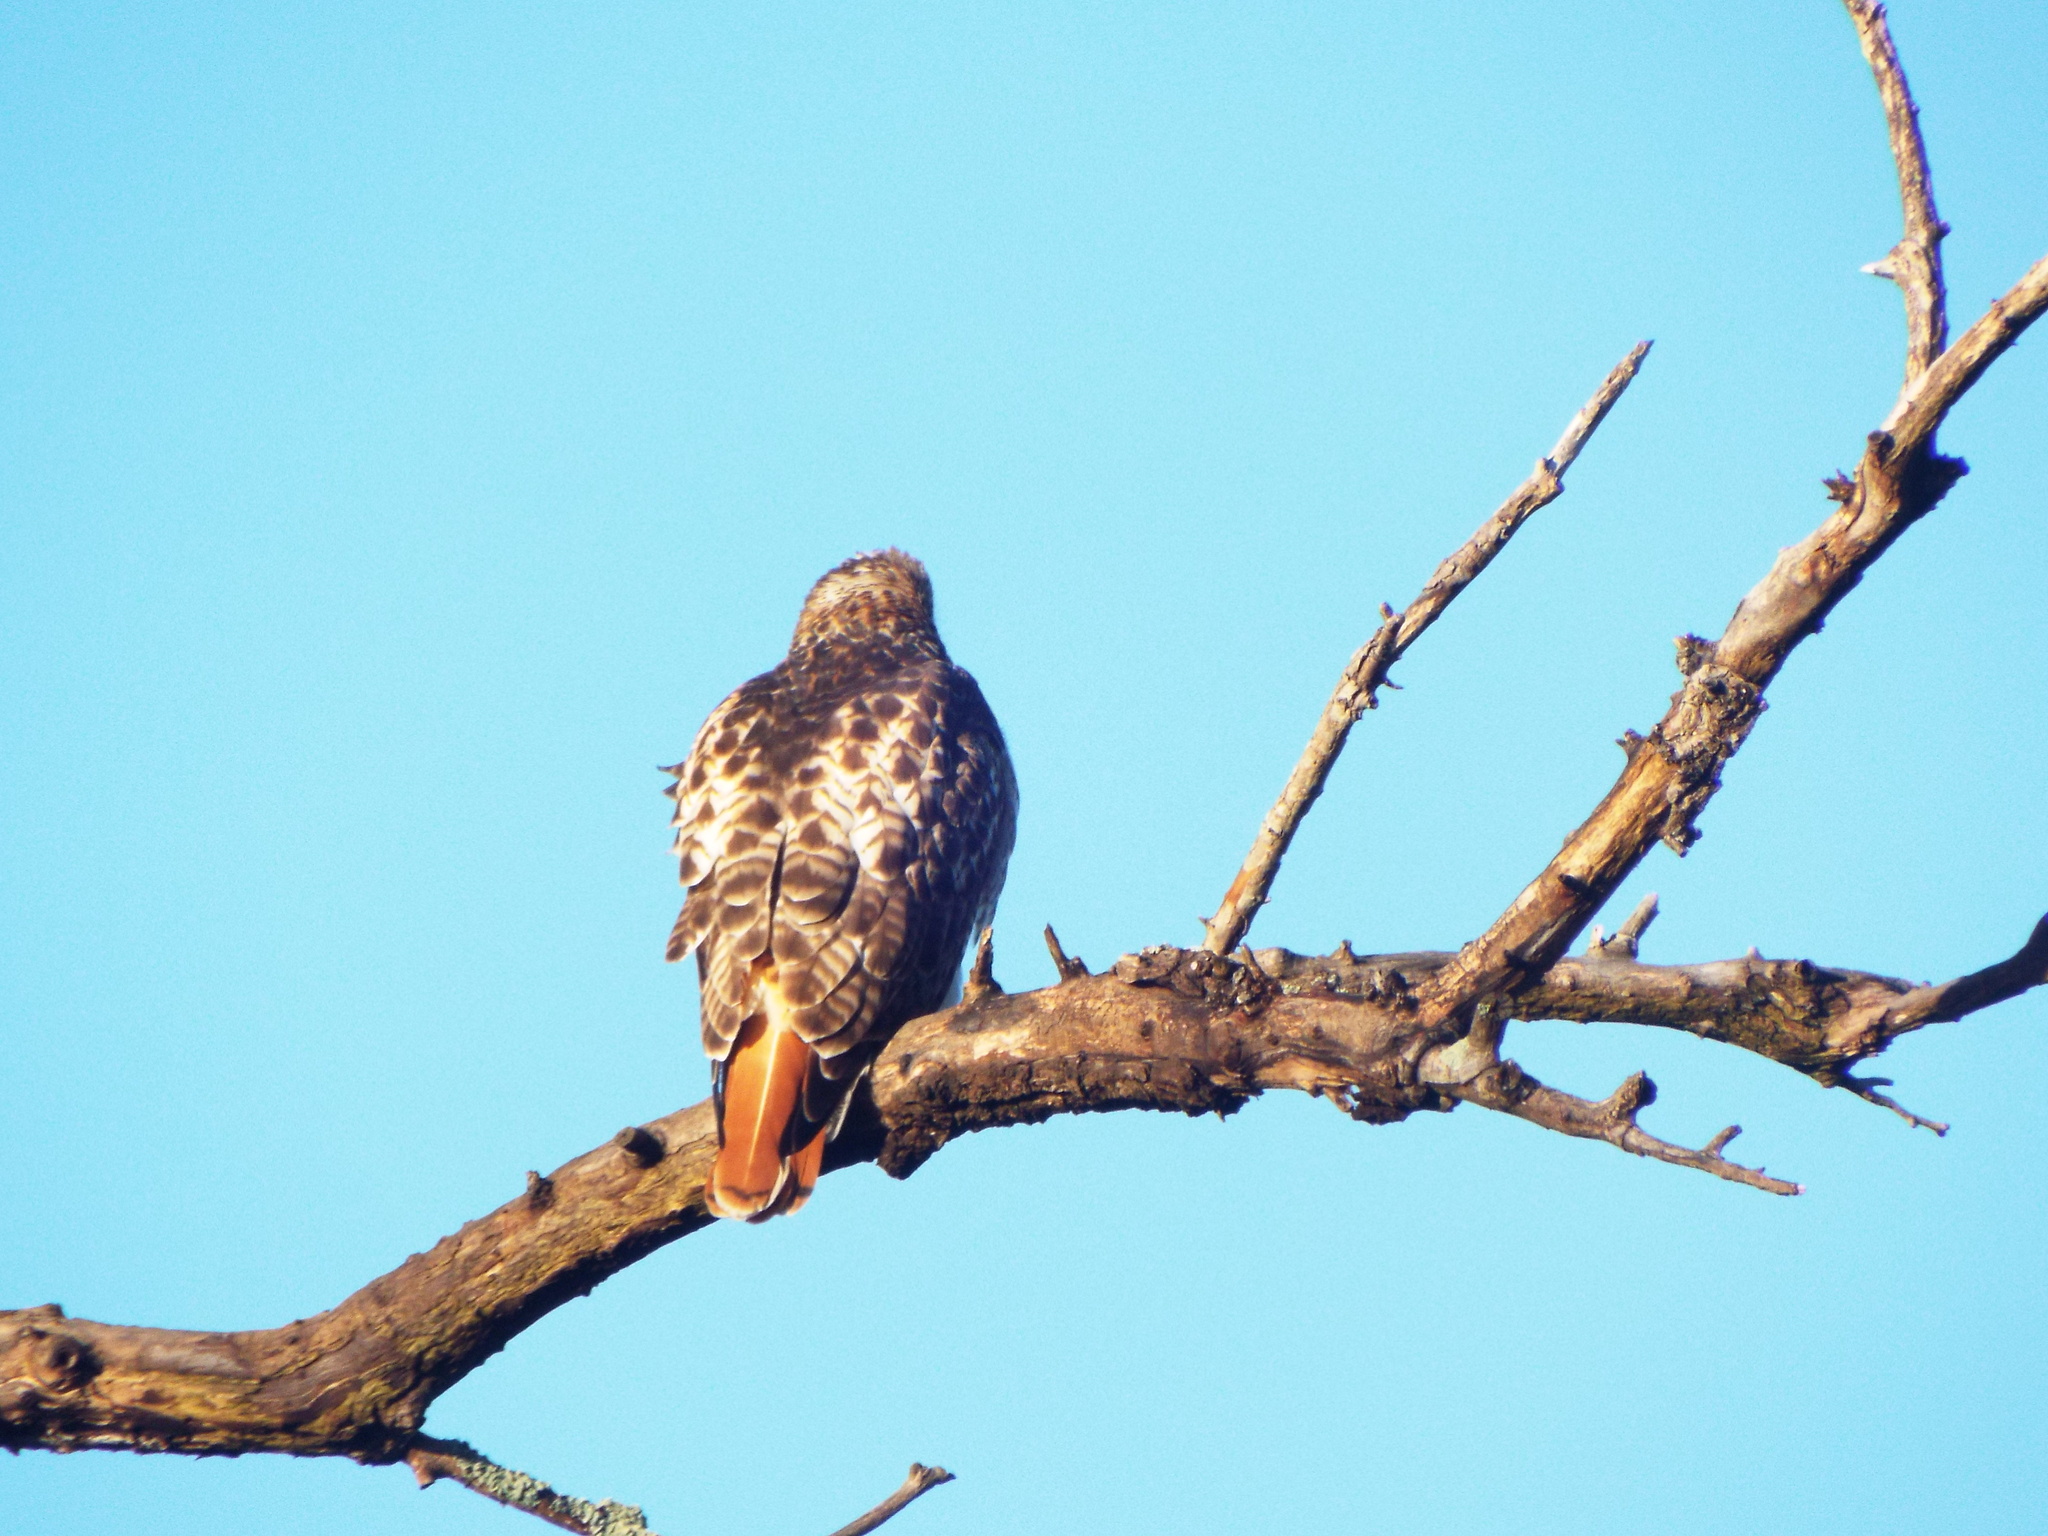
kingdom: Animalia
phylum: Chordata
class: Aves
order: Accipitriformes
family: Accipitridae
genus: Buteo
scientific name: Buteo jamaicensis
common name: Red-tailed hawk
